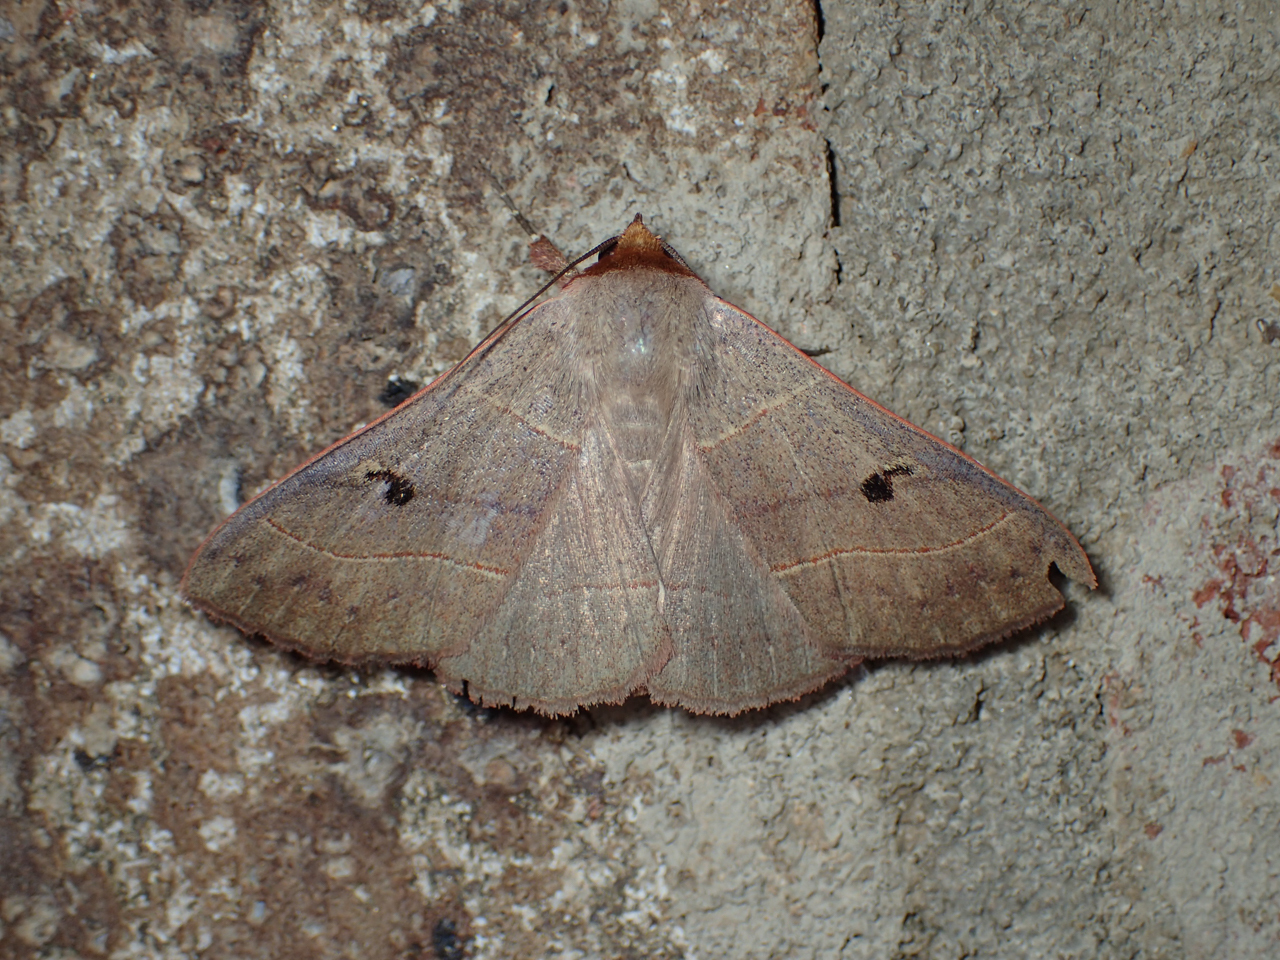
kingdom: Animalia
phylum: Arthropoda
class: Insecta
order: Lepidoptera
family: Erebidae
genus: Panopoda
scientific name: Panopoda rufimargo
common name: Red-lined panopoda moth
